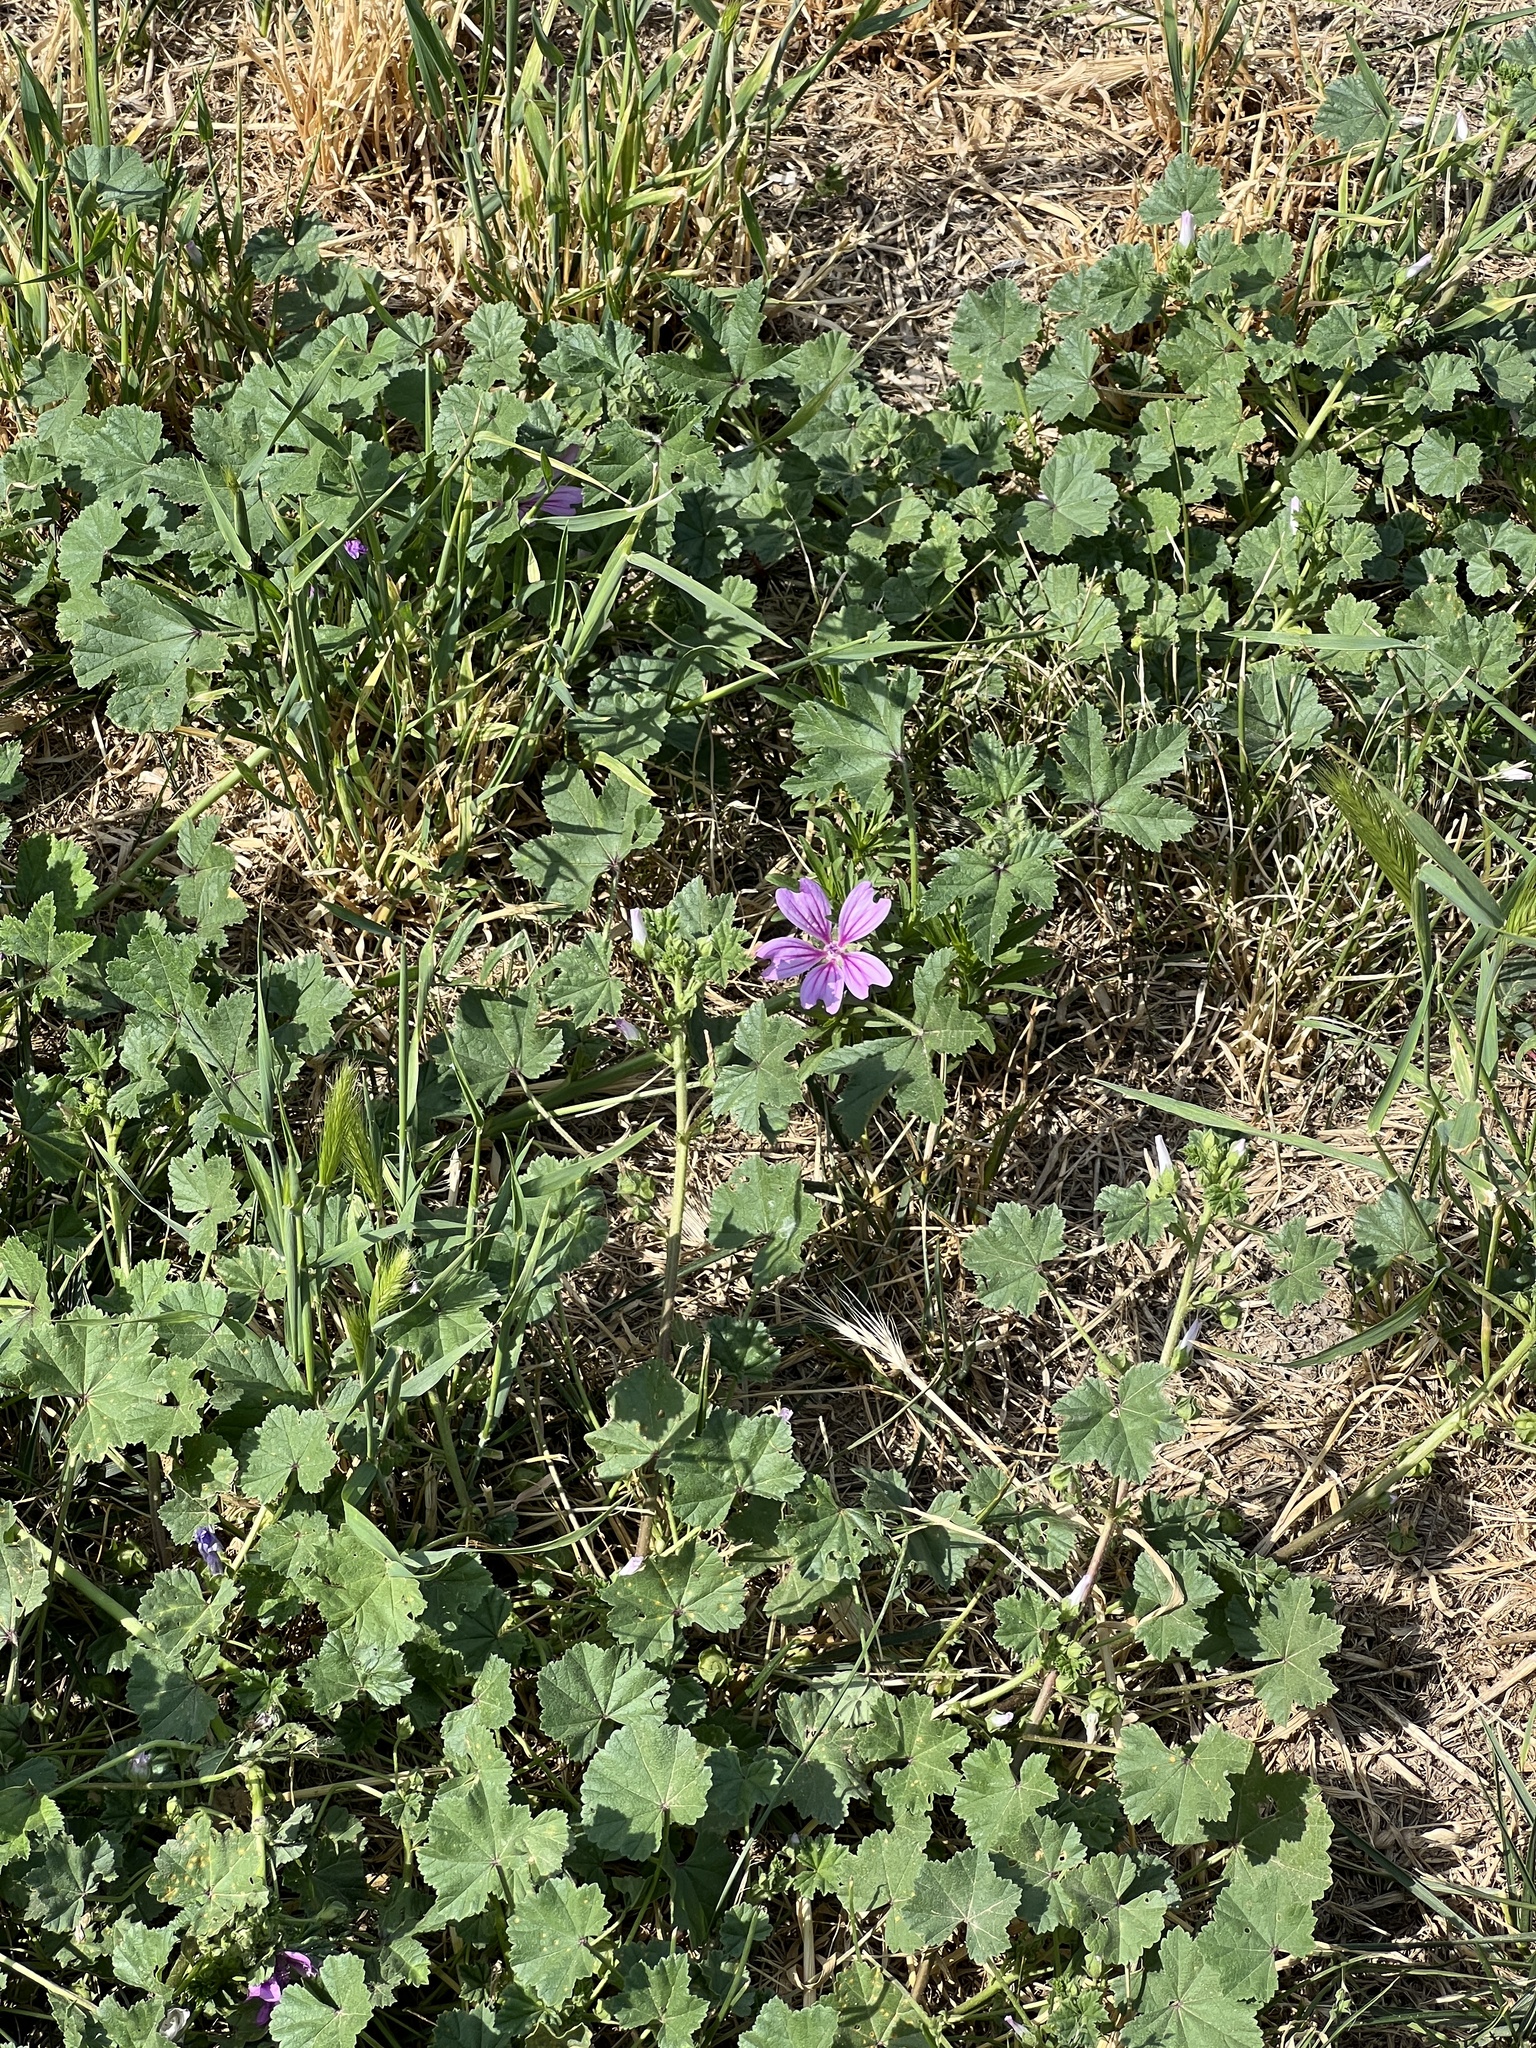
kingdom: Plantae
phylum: Tracheophyta
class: Magnoliopsida
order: Malvales
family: Malvaceae
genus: Malva
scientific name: Malva sylvestris
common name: Common mallow
